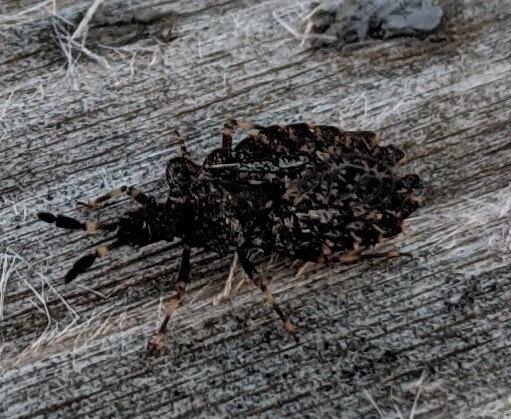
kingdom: Animalia
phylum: Arthropoda
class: Insecta
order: Hemiptera
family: Aradidae
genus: Aradus
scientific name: Aradus quadrilineatus
